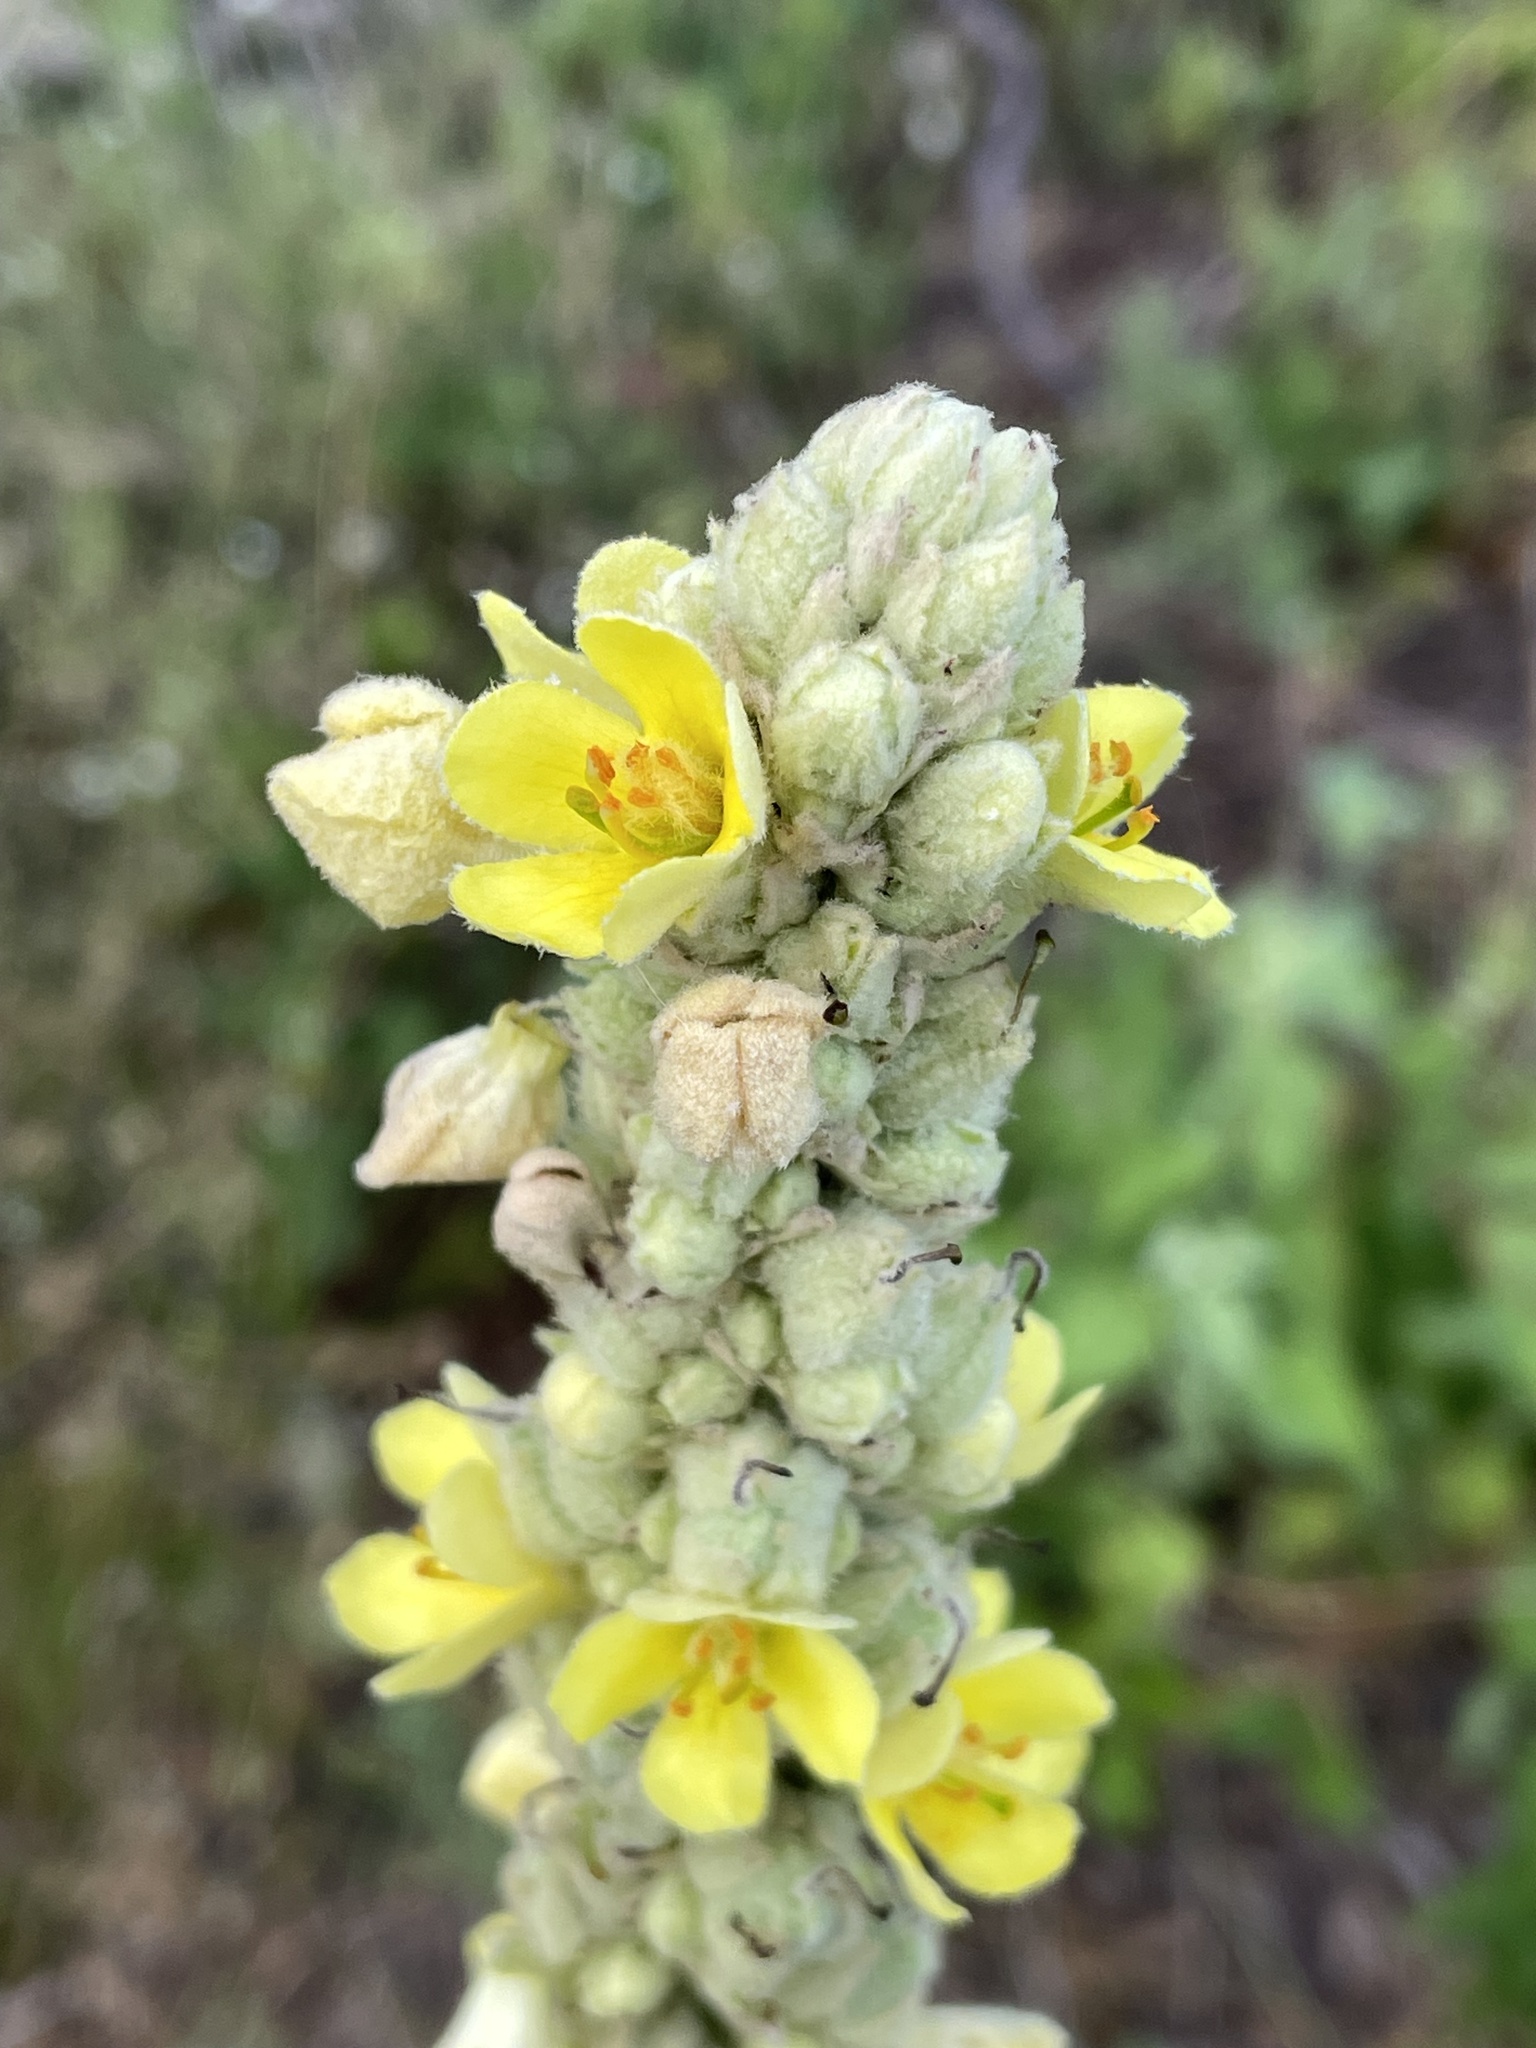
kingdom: Plantae
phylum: Tracheophyta
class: Magnoliopsida
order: Lamiales
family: Scrophulariaceae
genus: Verbascum
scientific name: Verbascum thapsus
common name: Common mullein
